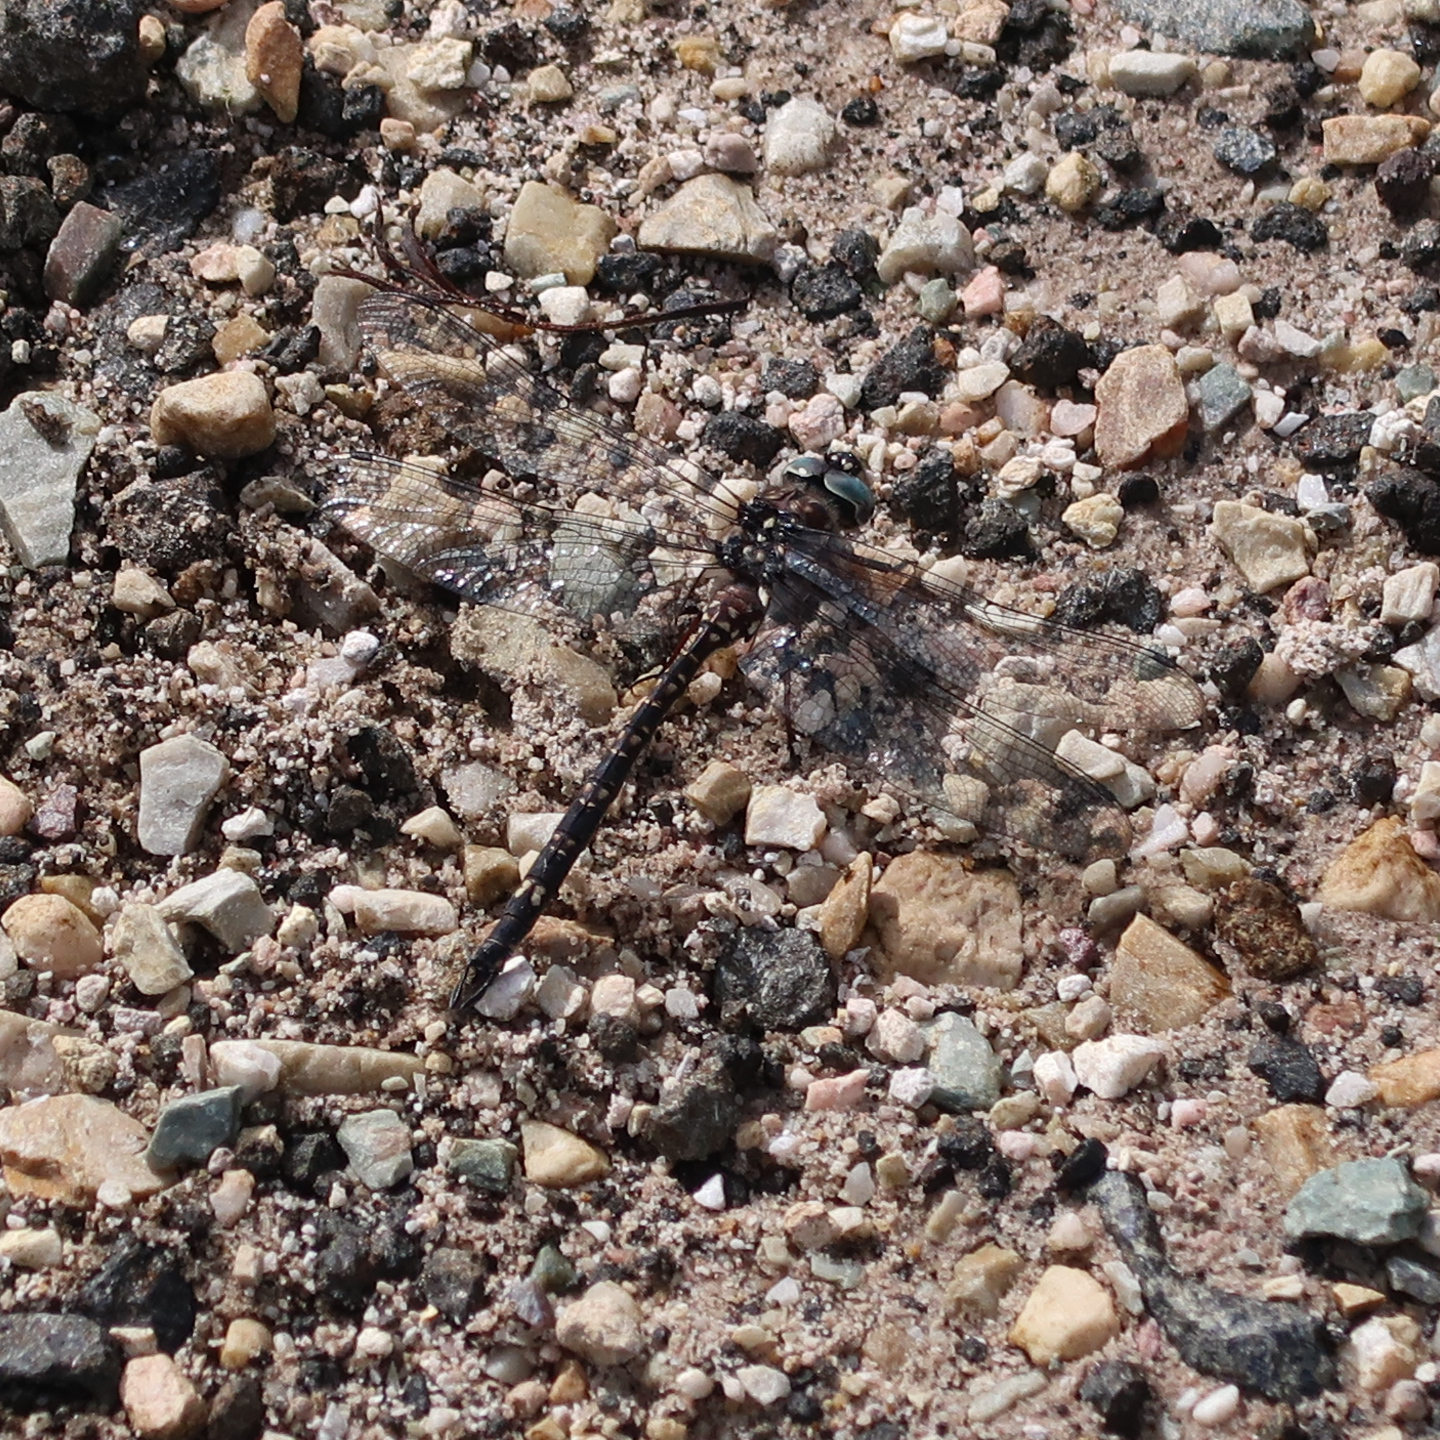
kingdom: Animalia
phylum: Arthropoda
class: Insecta
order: Odonata
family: Aeshnidae
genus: Austroaeschna
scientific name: Austroaeschna parvistigma
